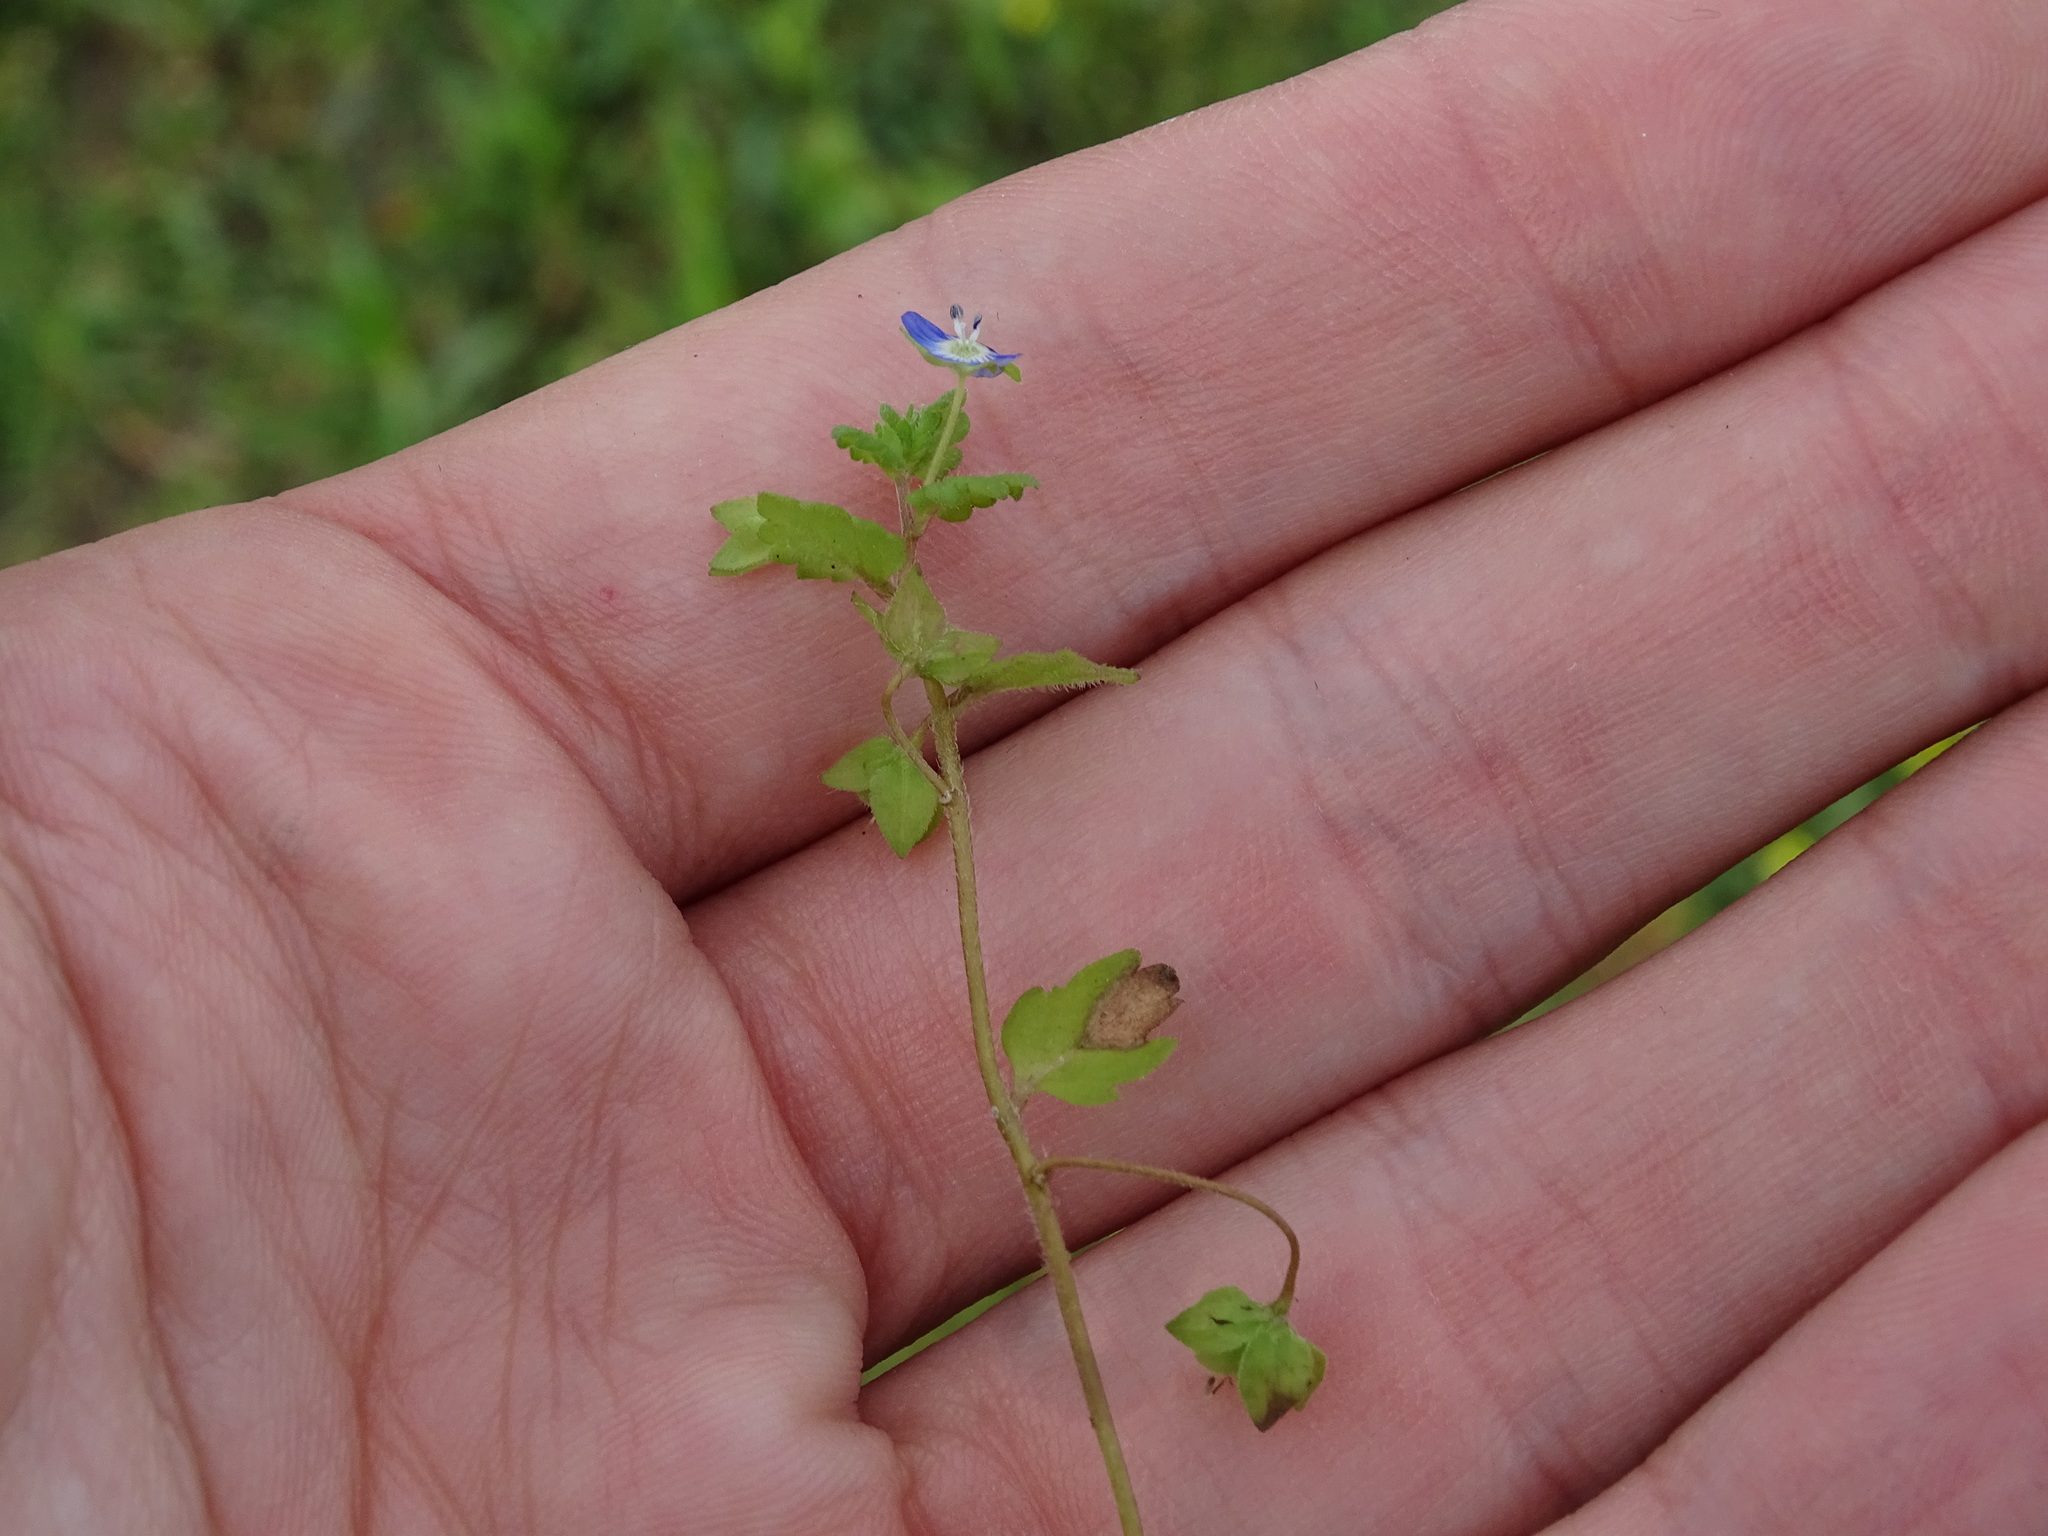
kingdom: Plantae
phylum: Tracheophyta
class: Magnoliopsida
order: Lamiales
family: Plantaginaceae
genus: Veronica
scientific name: Veronica polita
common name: Grey field-speedwell
